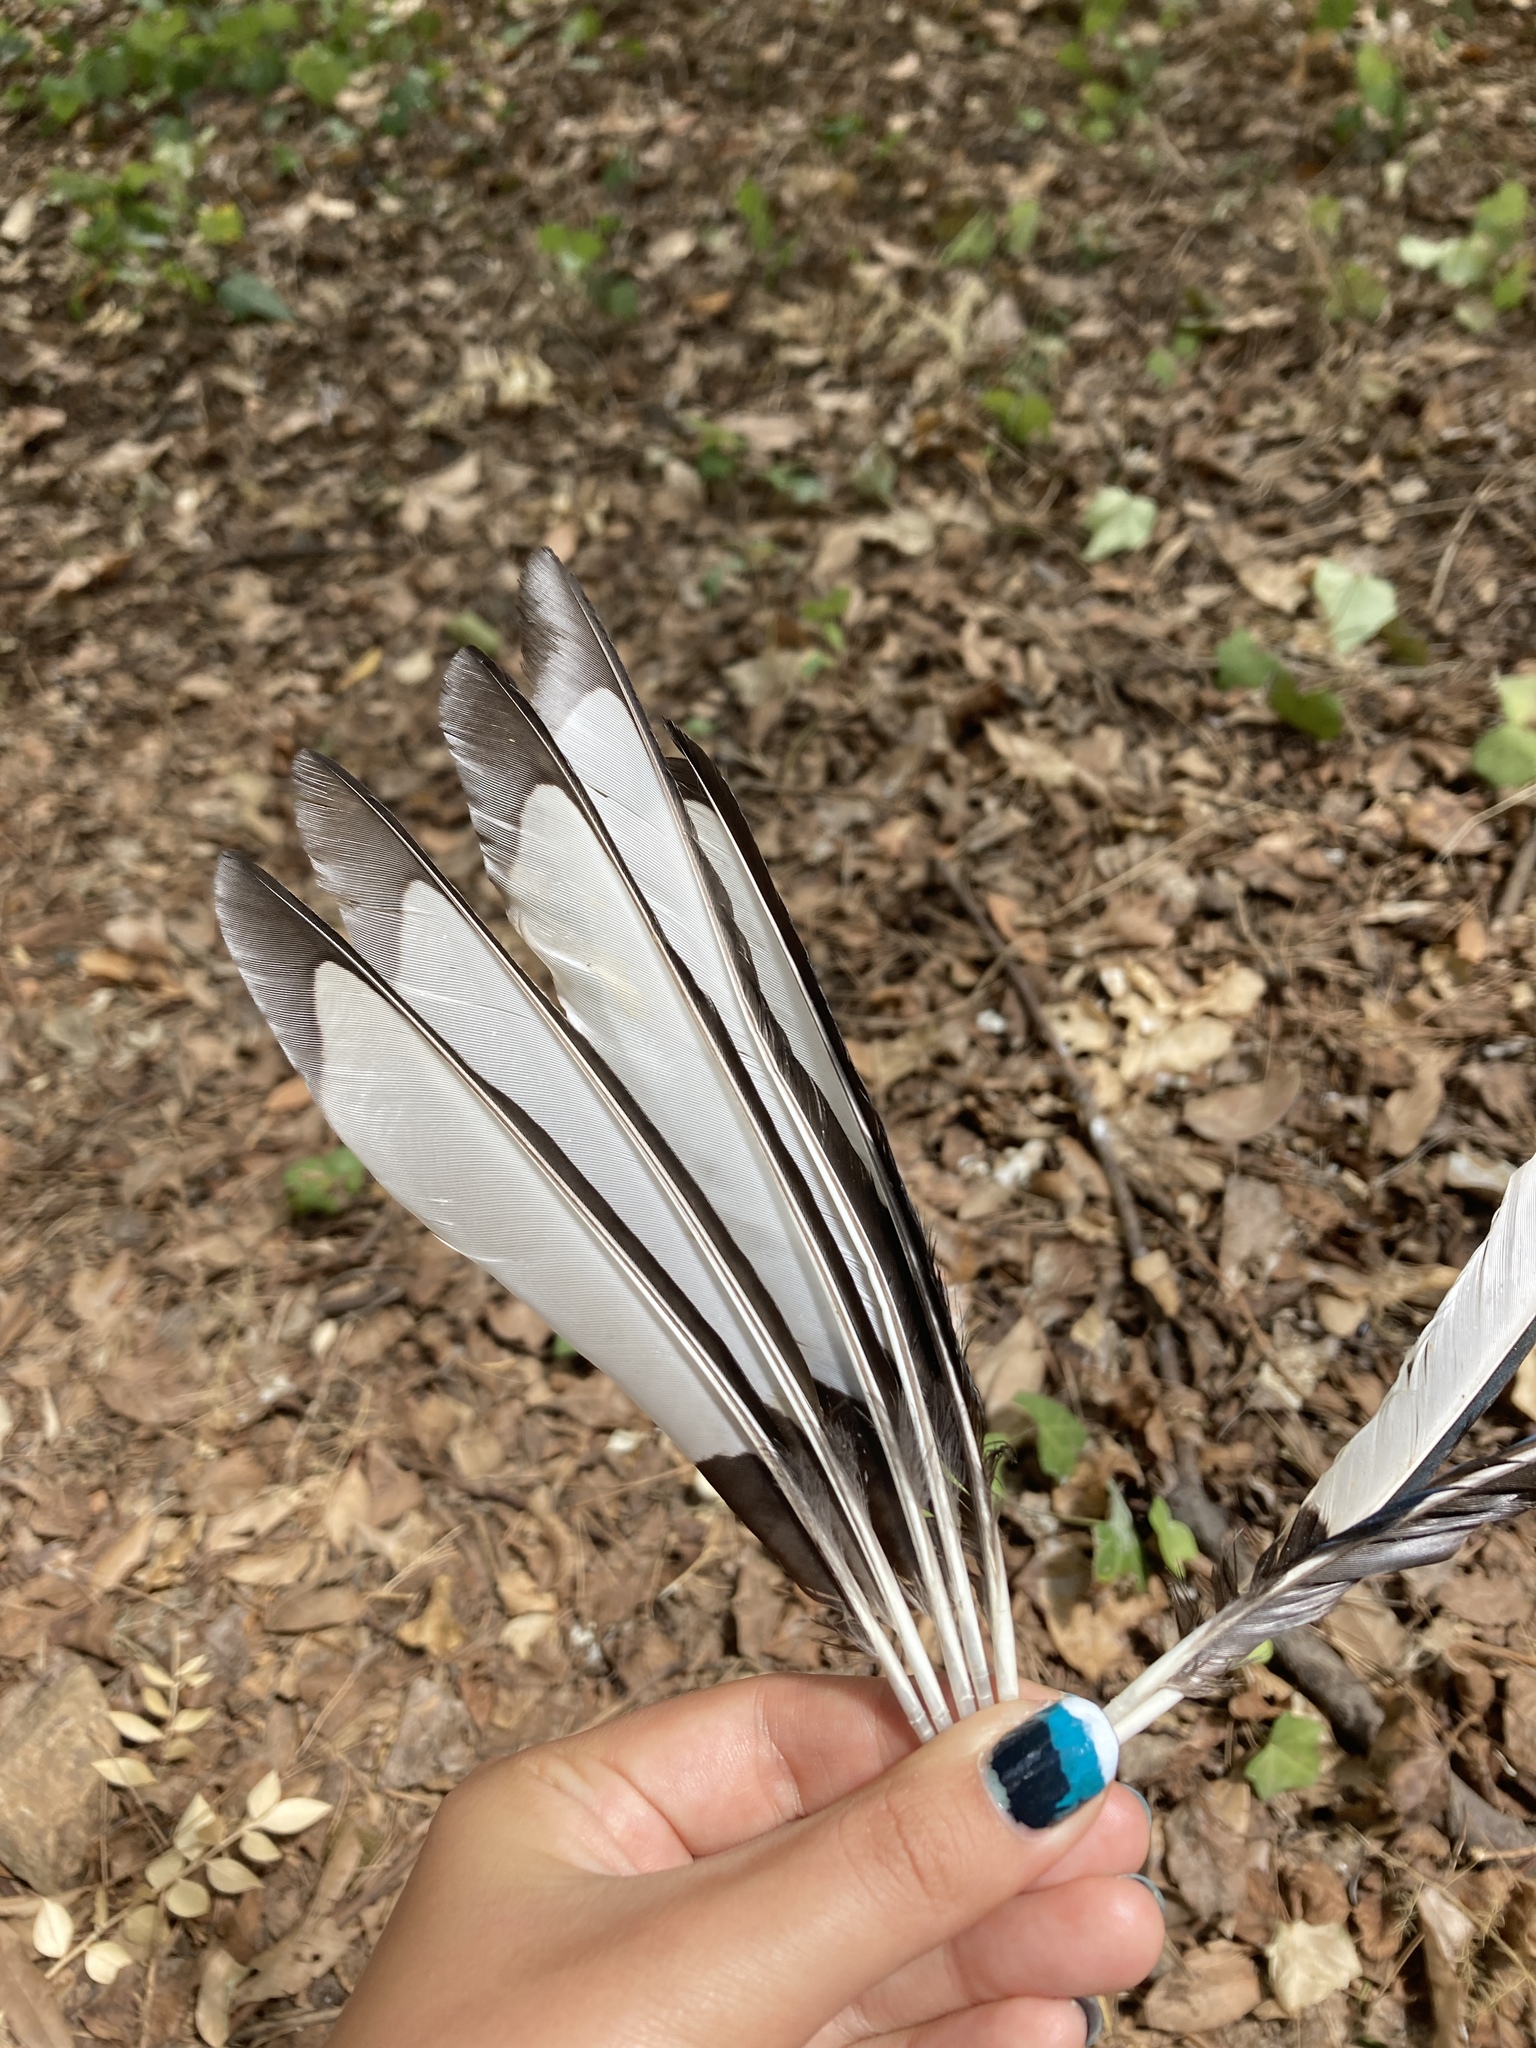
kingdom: Animalia
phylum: Chordata
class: Aves
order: Passeriformes
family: Corvidae
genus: Pica
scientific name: Pica pica
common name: Eurasian magpie
